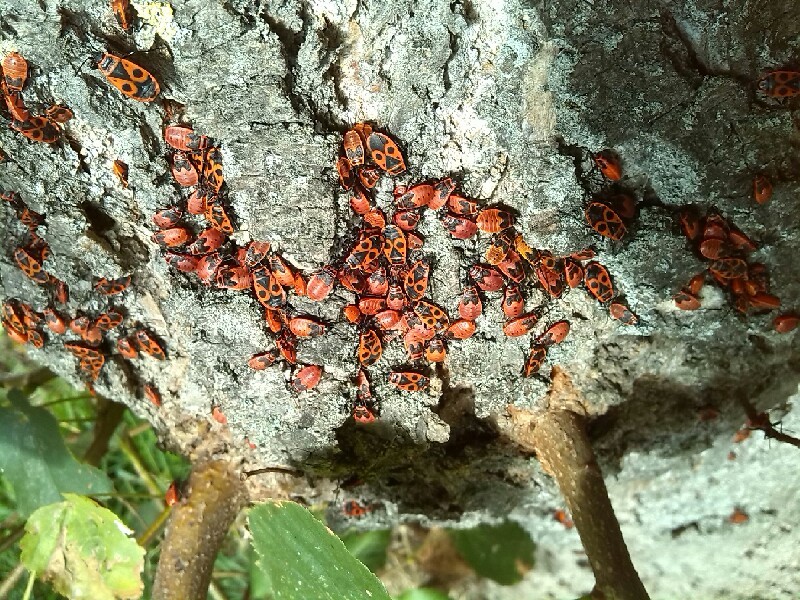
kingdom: Animalia
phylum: Arthropoda
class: Insecta
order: Hemiptera
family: Pyrrhocoridae
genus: Pyrrhocoris
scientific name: Pyrrhocoris apterus
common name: Firebug
